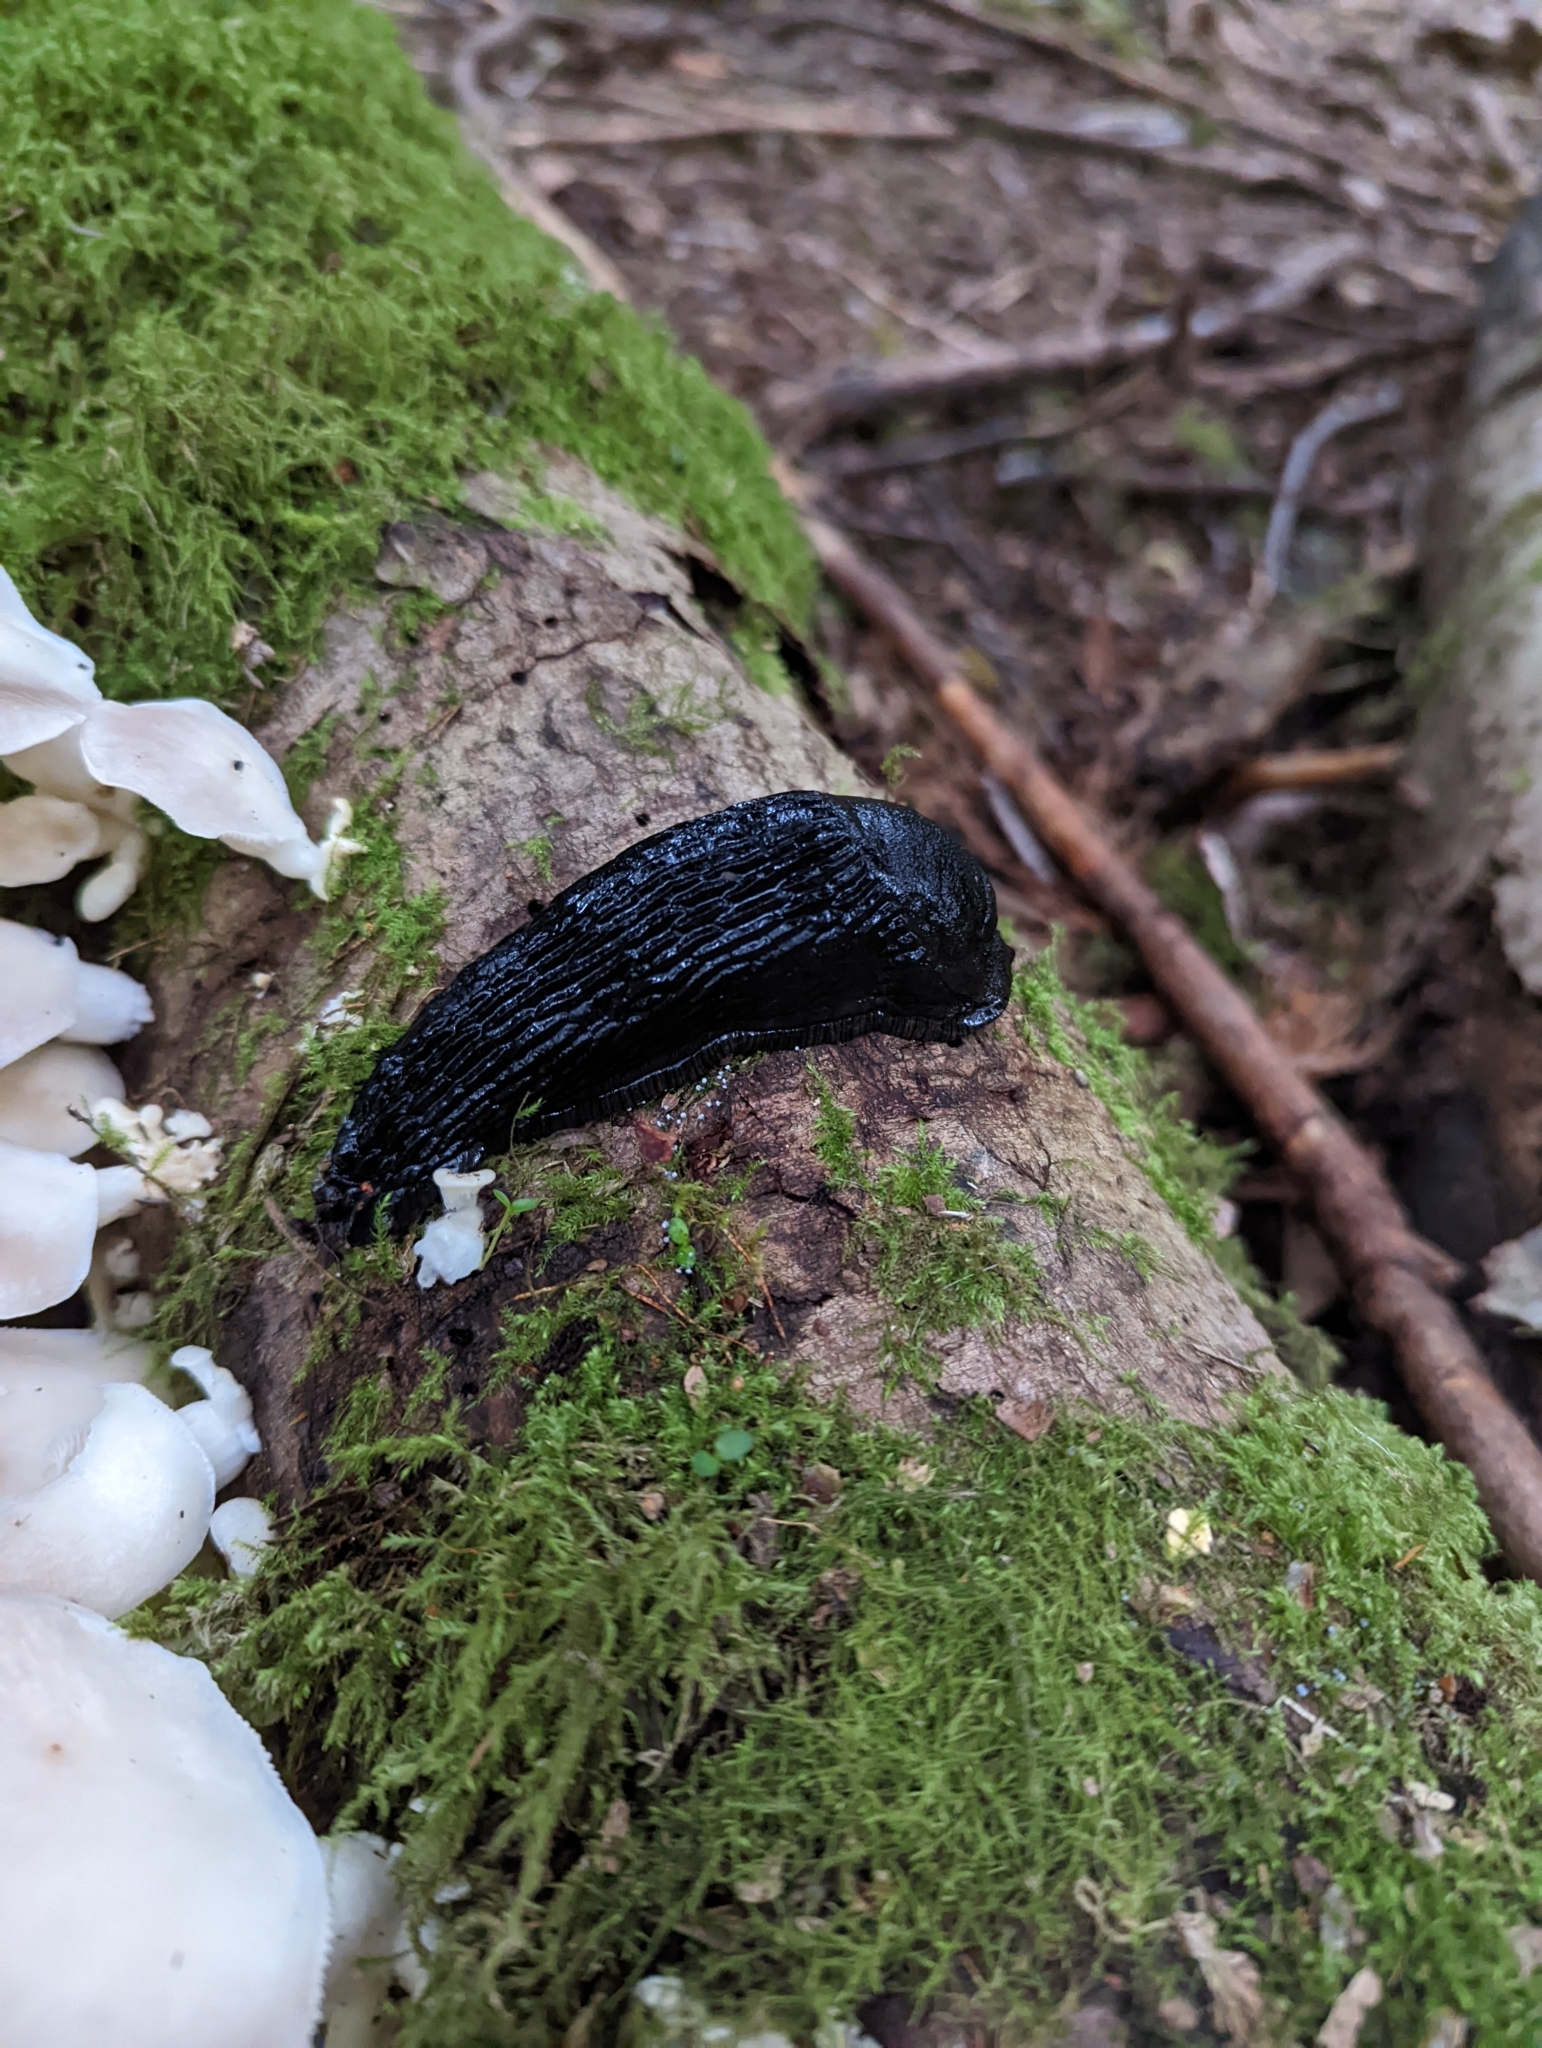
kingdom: Animalia
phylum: Mollusca
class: Gastropoda
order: Stylommatophora
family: Arionidae
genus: Arion
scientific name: Arion
